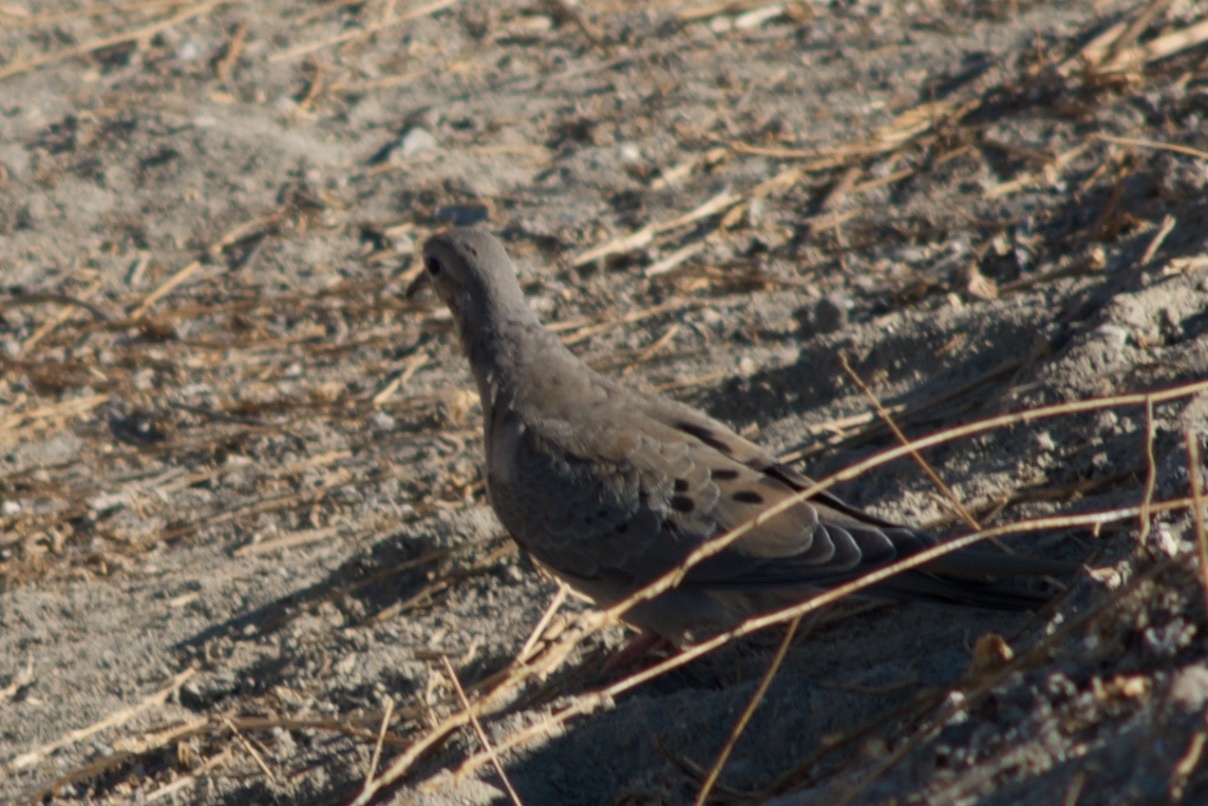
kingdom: Animalia
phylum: Chordata
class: Aves
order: Columbiformes
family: Columbidae
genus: Zenaida
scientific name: Zenaida macroura
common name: Mourning dove
